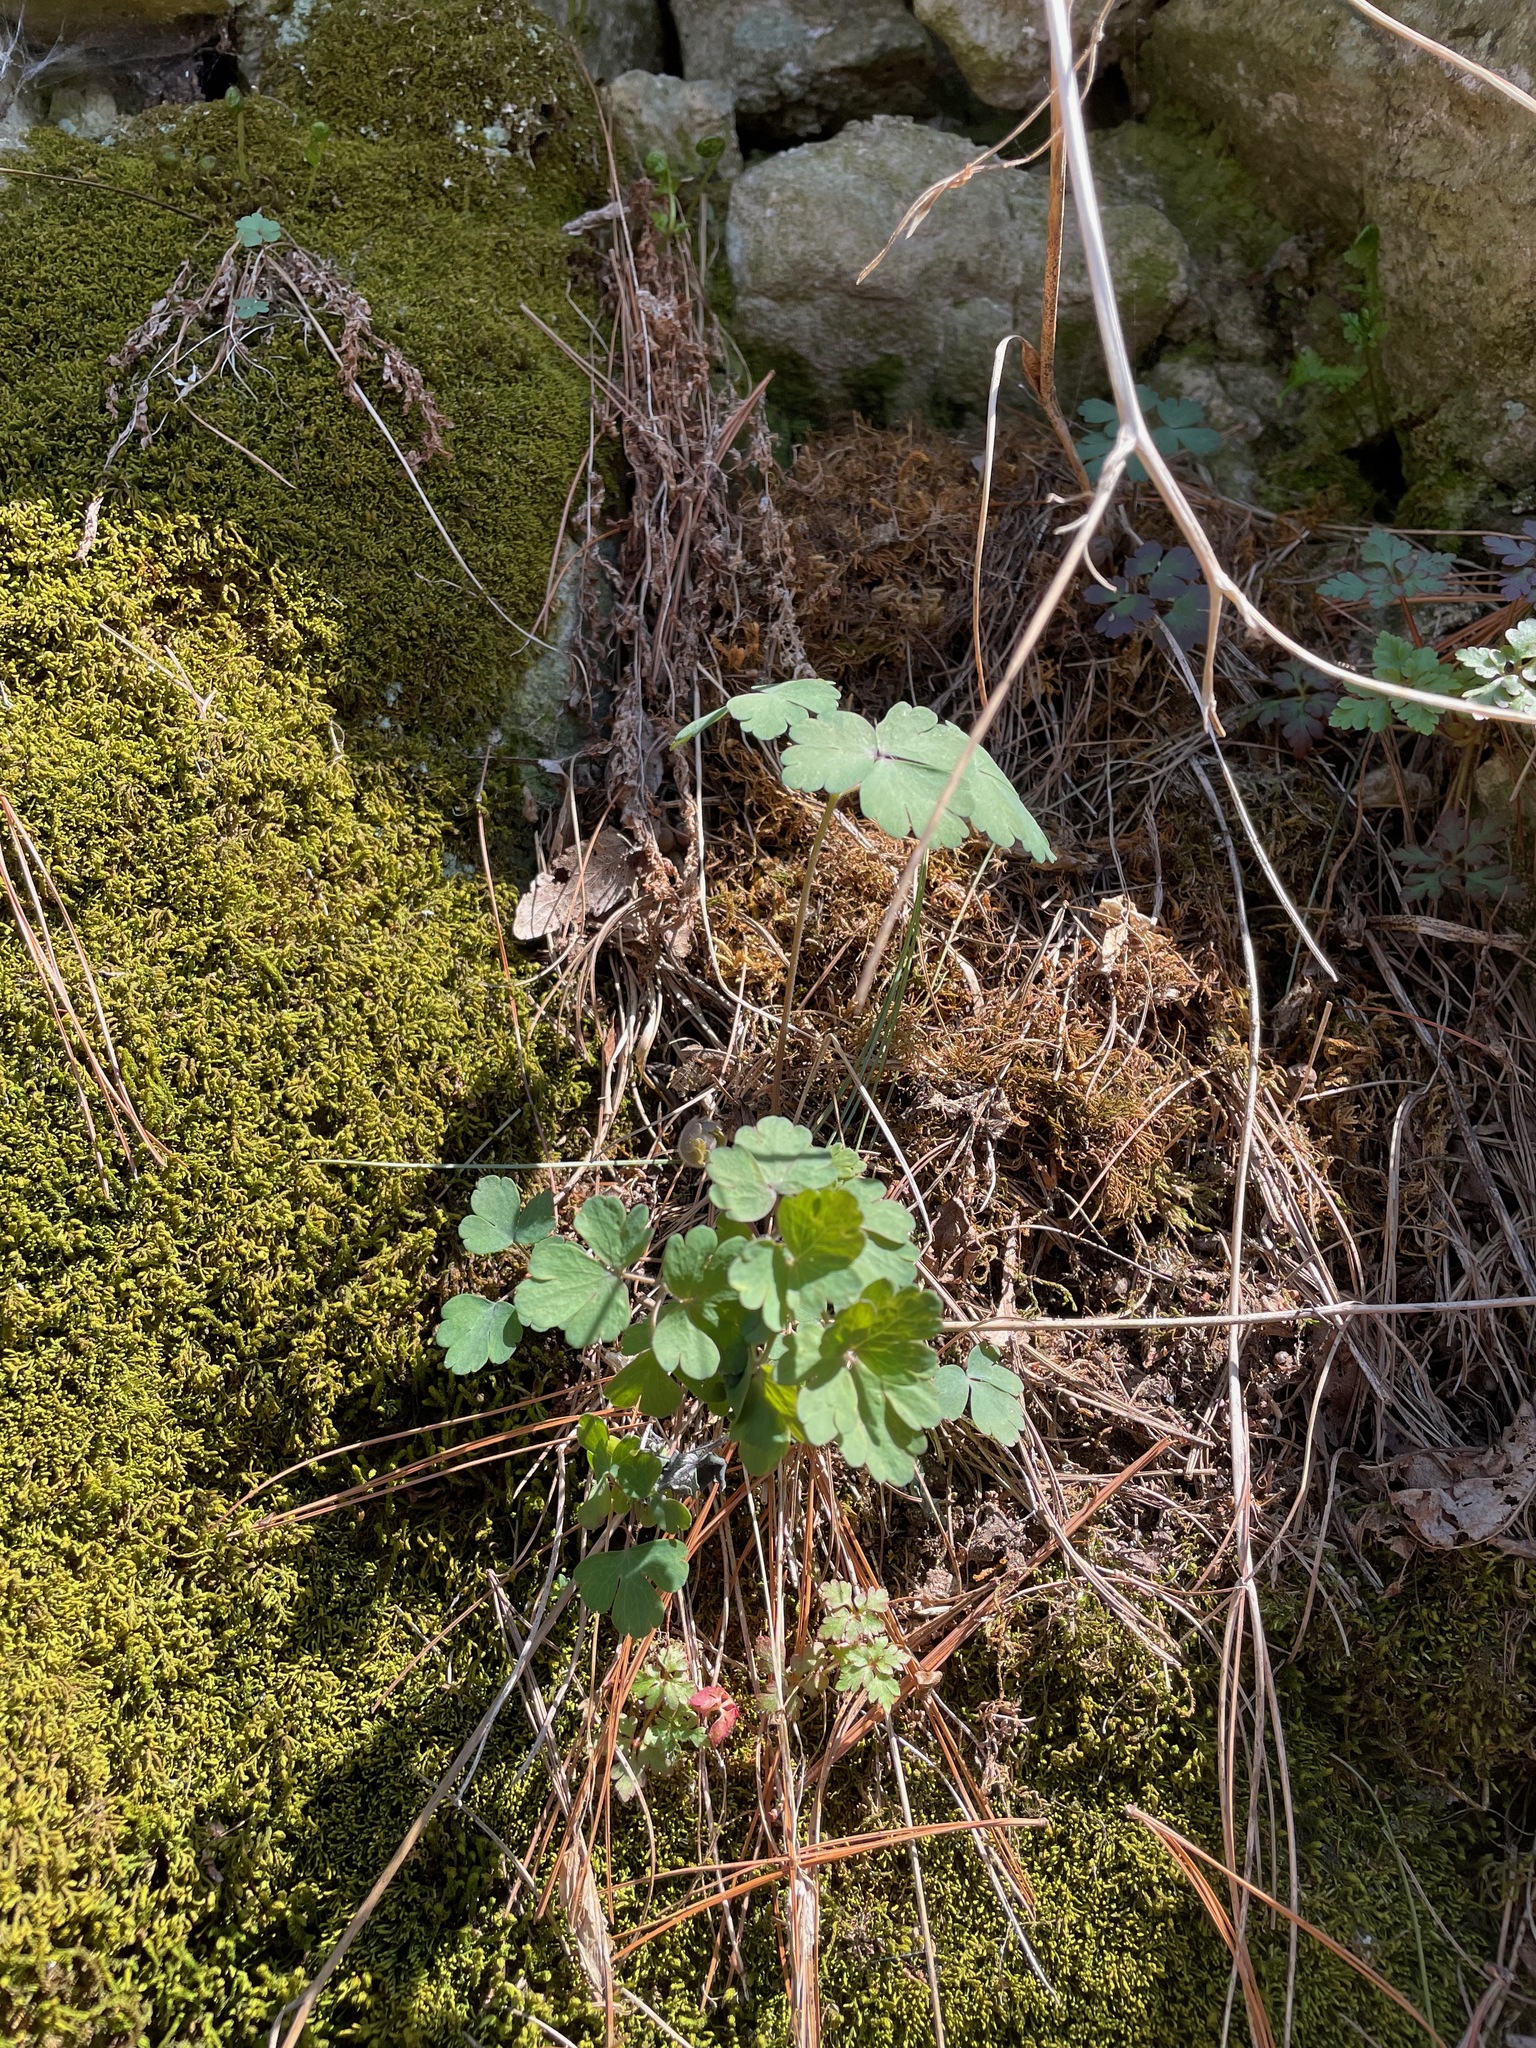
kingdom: Plantae
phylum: Tracheophyta
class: Magnoliopsida
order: Ranunculales
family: Ranunculaceae
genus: Aquilegia
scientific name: Aquilegia canadensis
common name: American columbine
